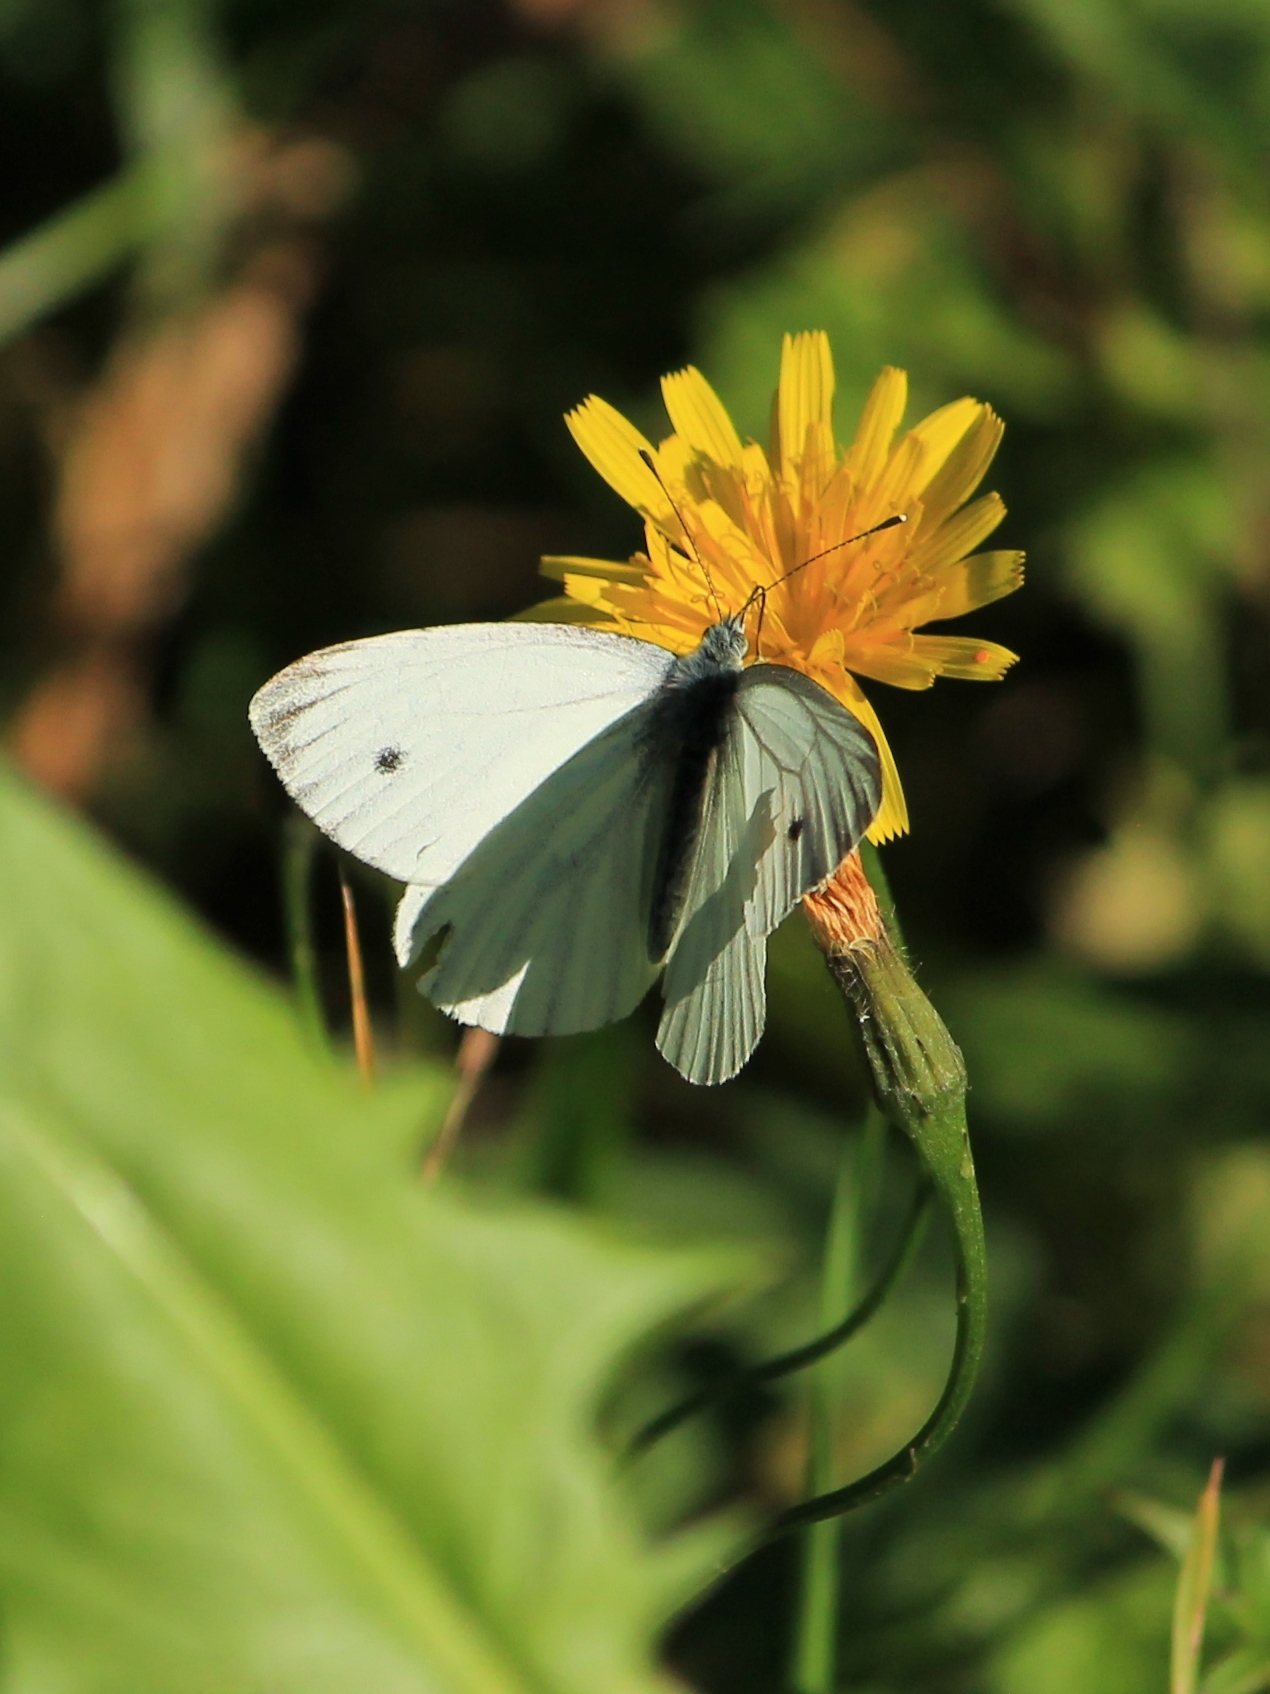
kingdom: Animalia
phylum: Arthropoda
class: Insecta
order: Lepidoptera
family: Pieridae
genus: Pieris
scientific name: Pieris napi
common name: Green-veined white
